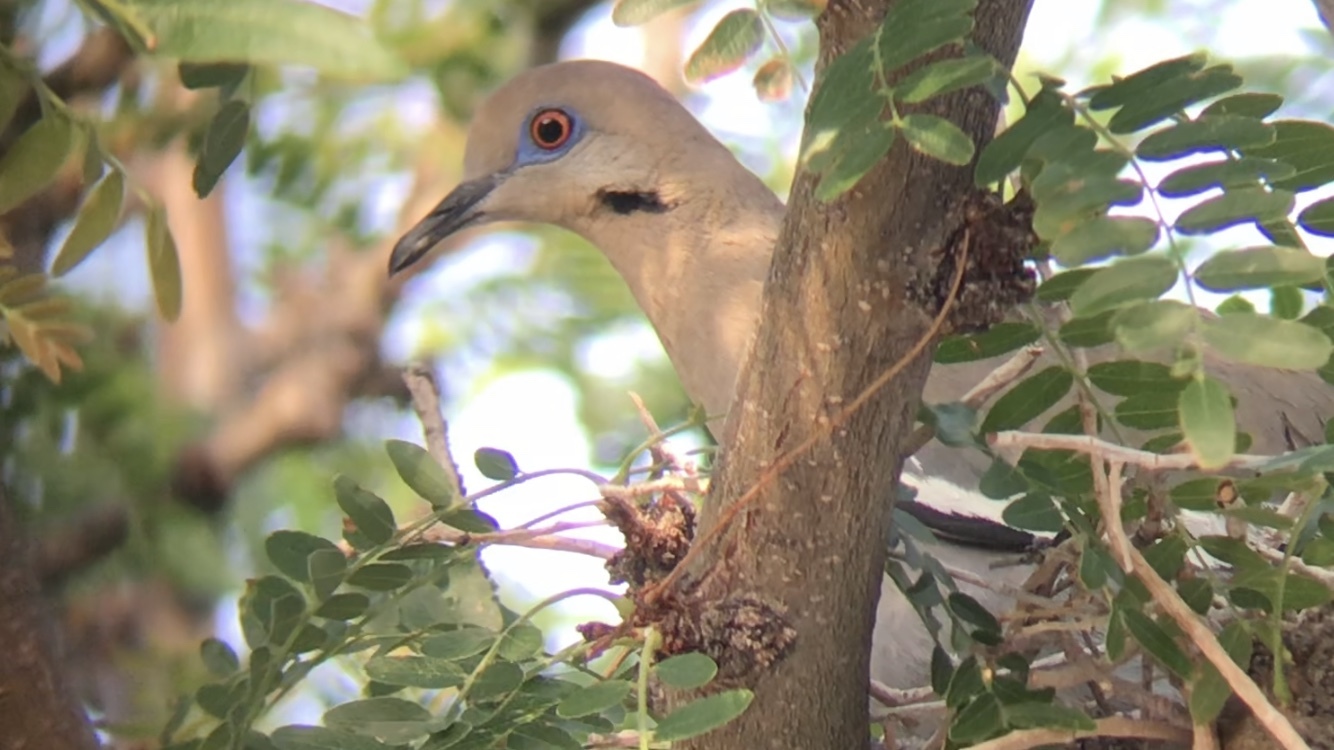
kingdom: Animalia
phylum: Chordata
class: Aves
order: Columbiformes
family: Columbidae
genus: Zenaida
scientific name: Zenaida asiatica
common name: White-winged dove
